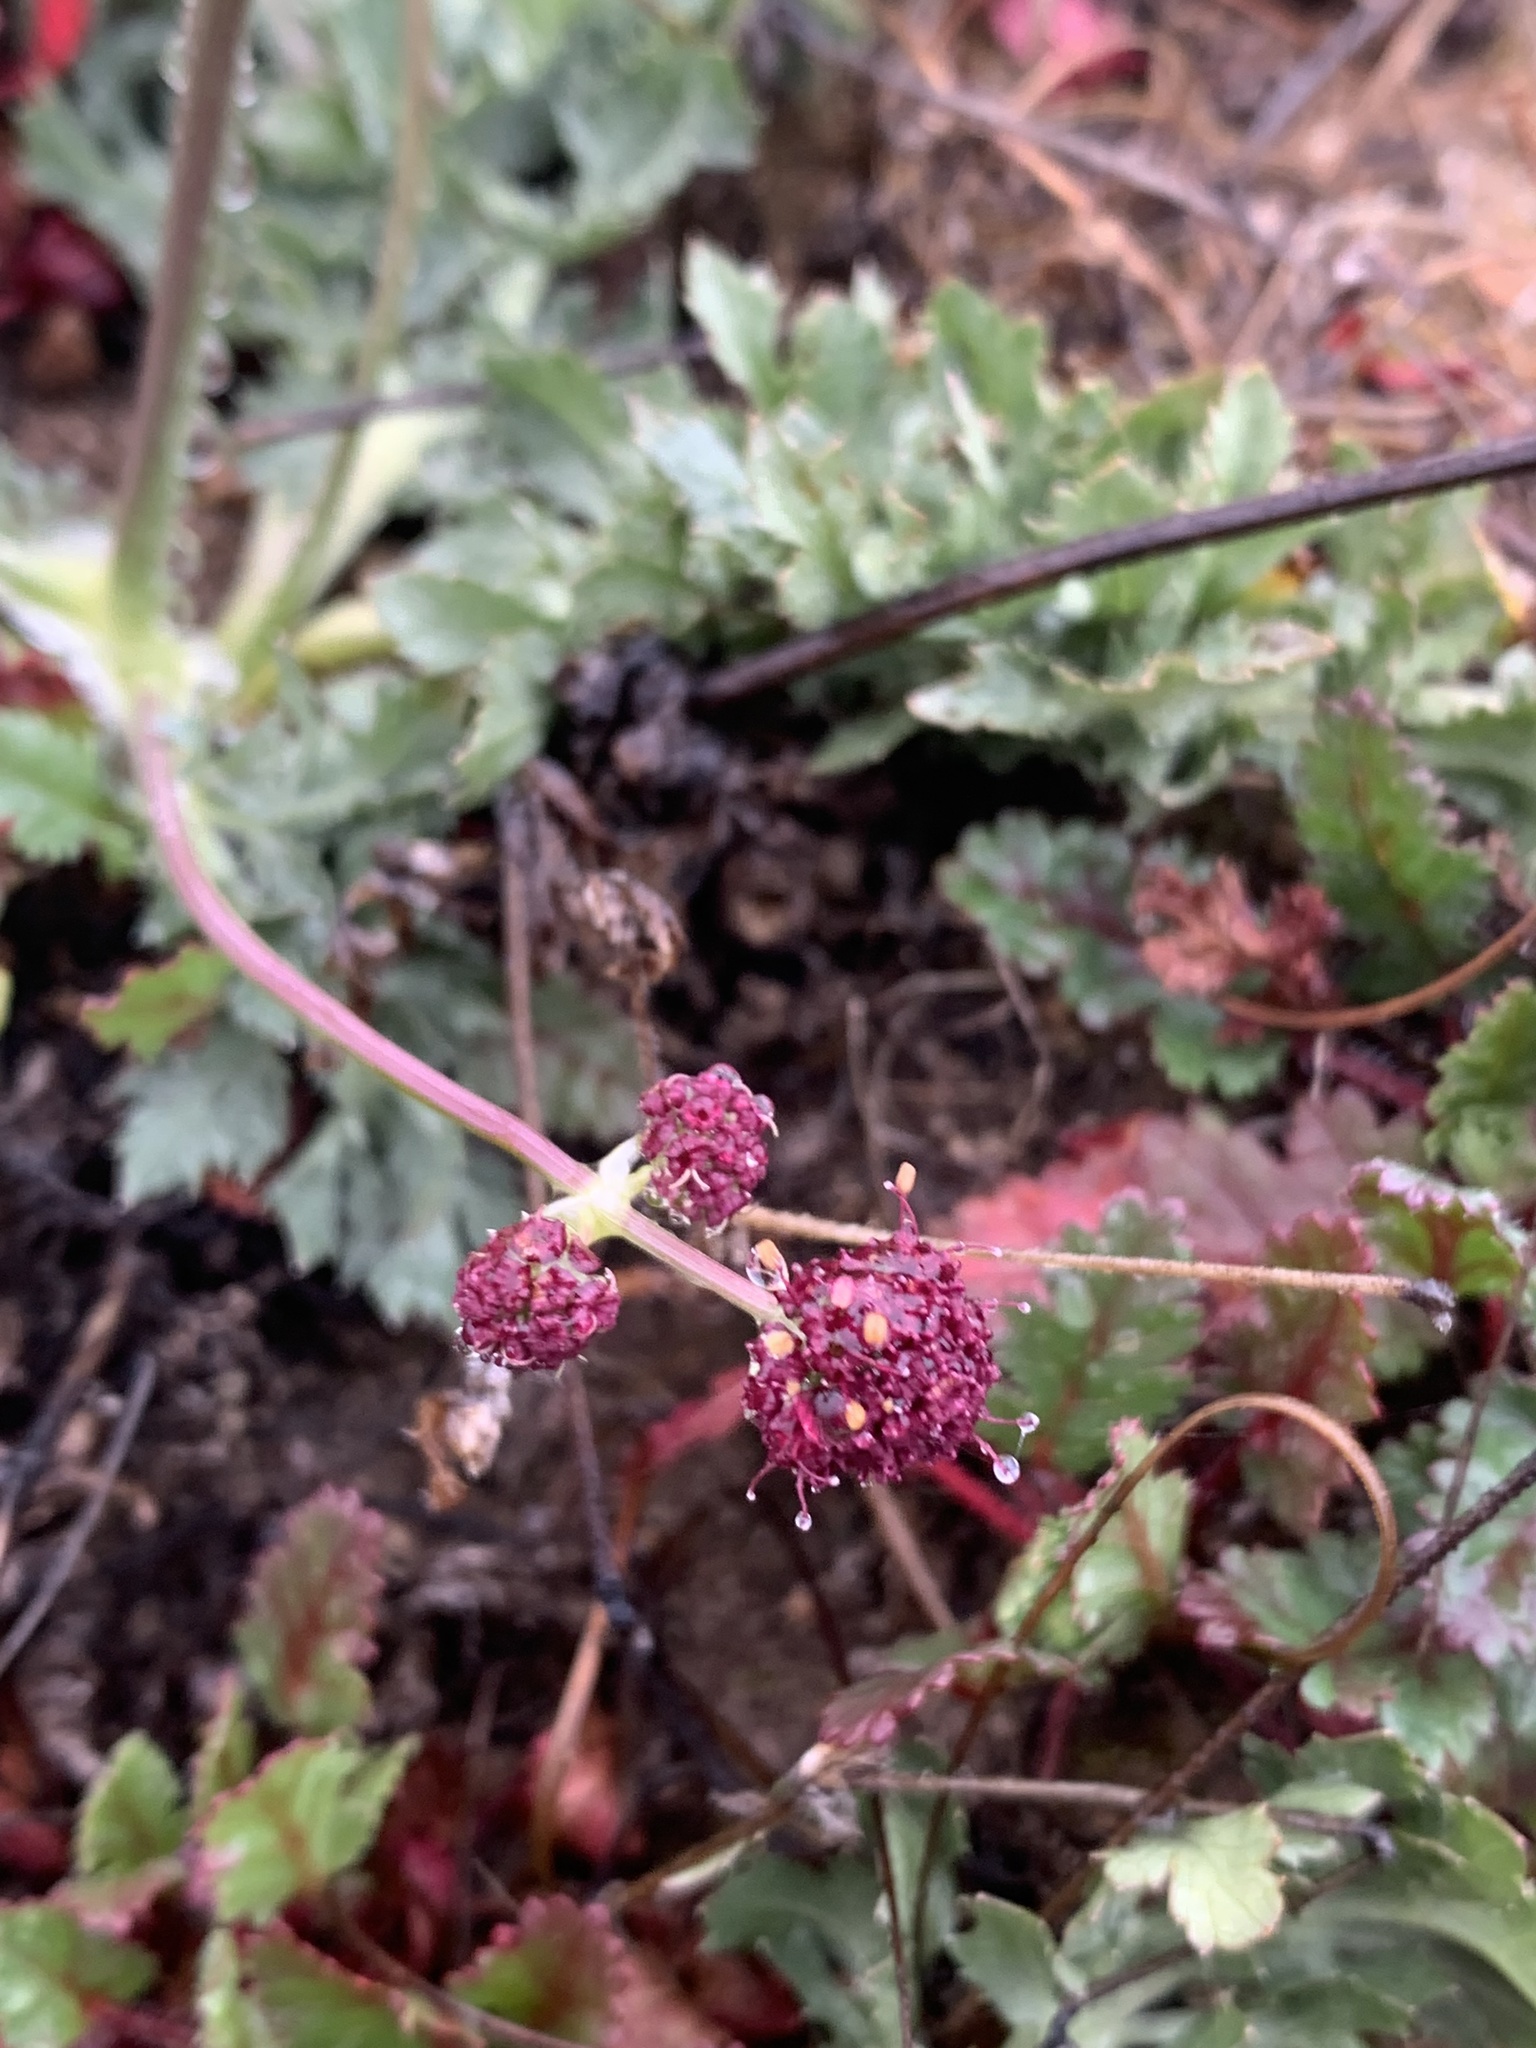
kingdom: Plantae
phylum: Tracheophyta
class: Magnoliopsida
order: Apiales
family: Apiaceae
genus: Sanicula
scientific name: Sanicula bipinnatifida
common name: Shoe-buttons
